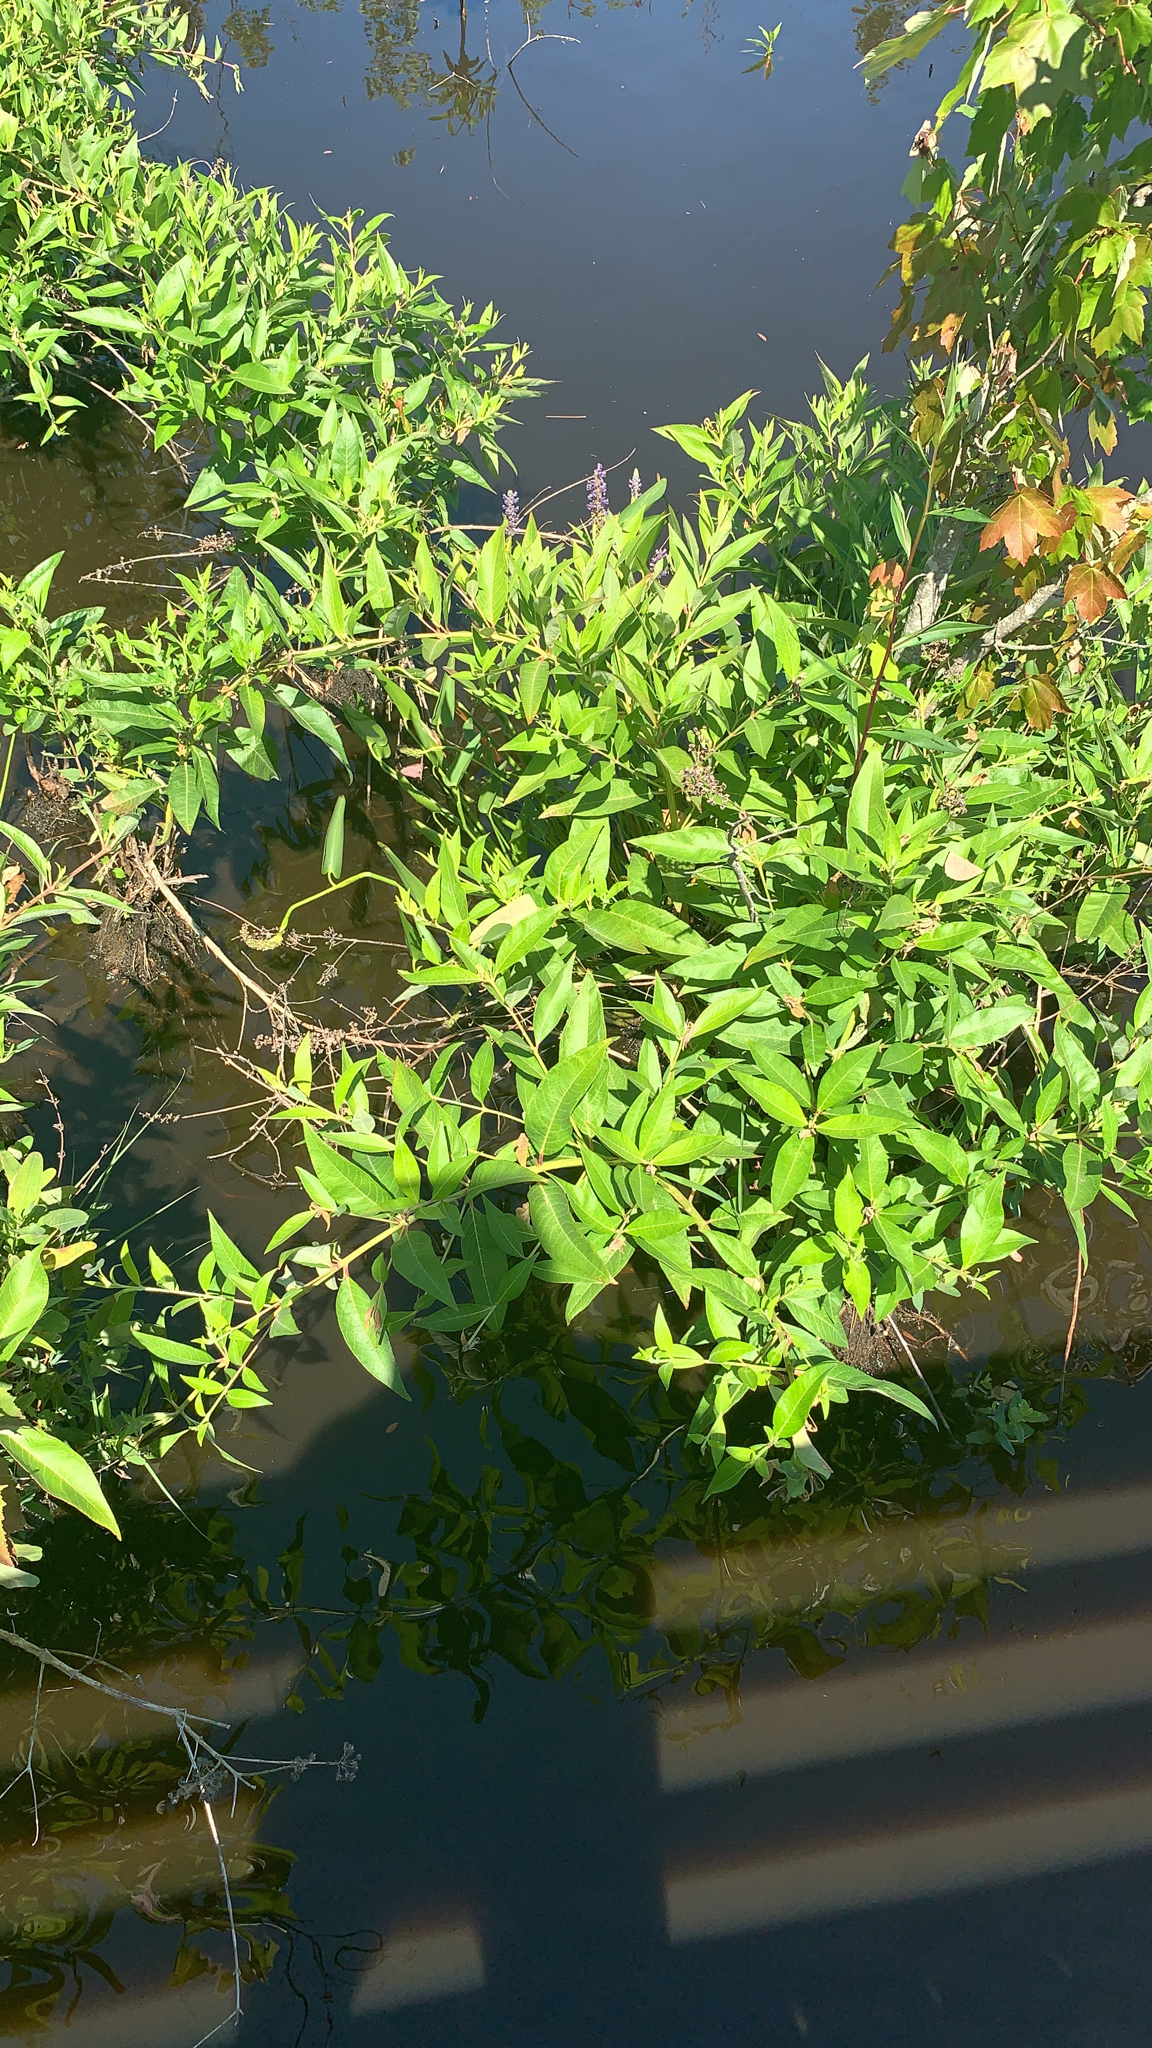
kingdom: Plantae
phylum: Tracheophyta
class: Magnoliopsida
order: Myrtales
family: Lythraceae
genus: Decodon
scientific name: Decodon verticillatus
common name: Hairy swamp loosestrife
